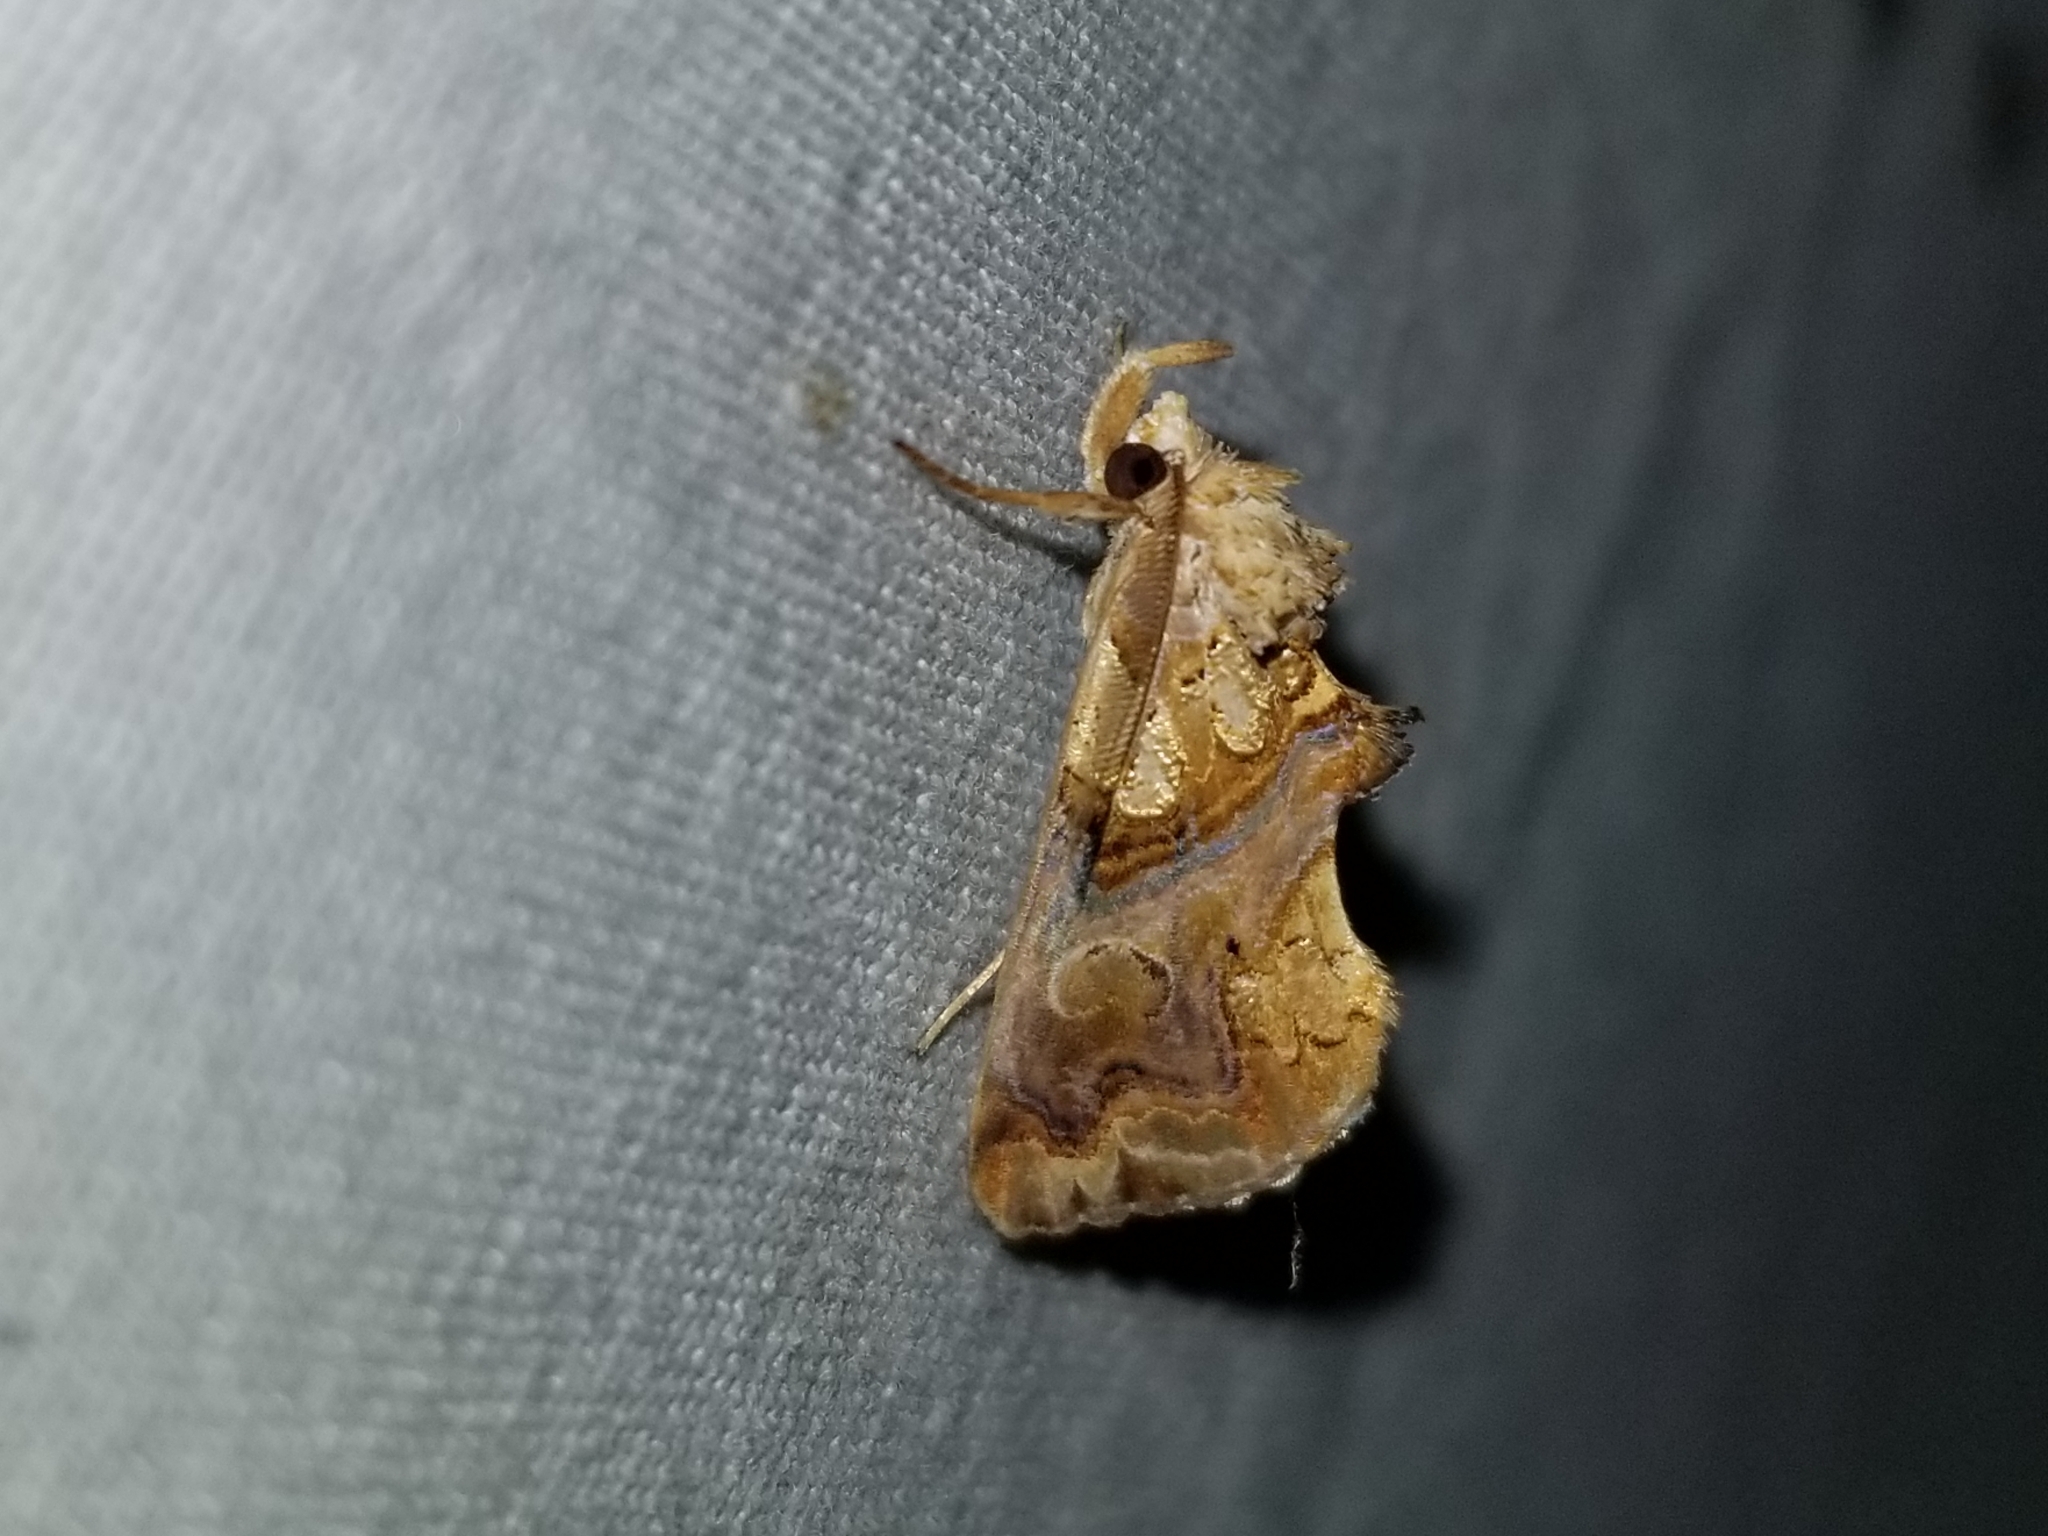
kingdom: Animalia
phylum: Arthropoda
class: Insecta
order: Lepidoptera
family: Erebidae
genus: Plusiodonta
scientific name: Plusiodonta compressipalpis
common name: Moonseed moth
